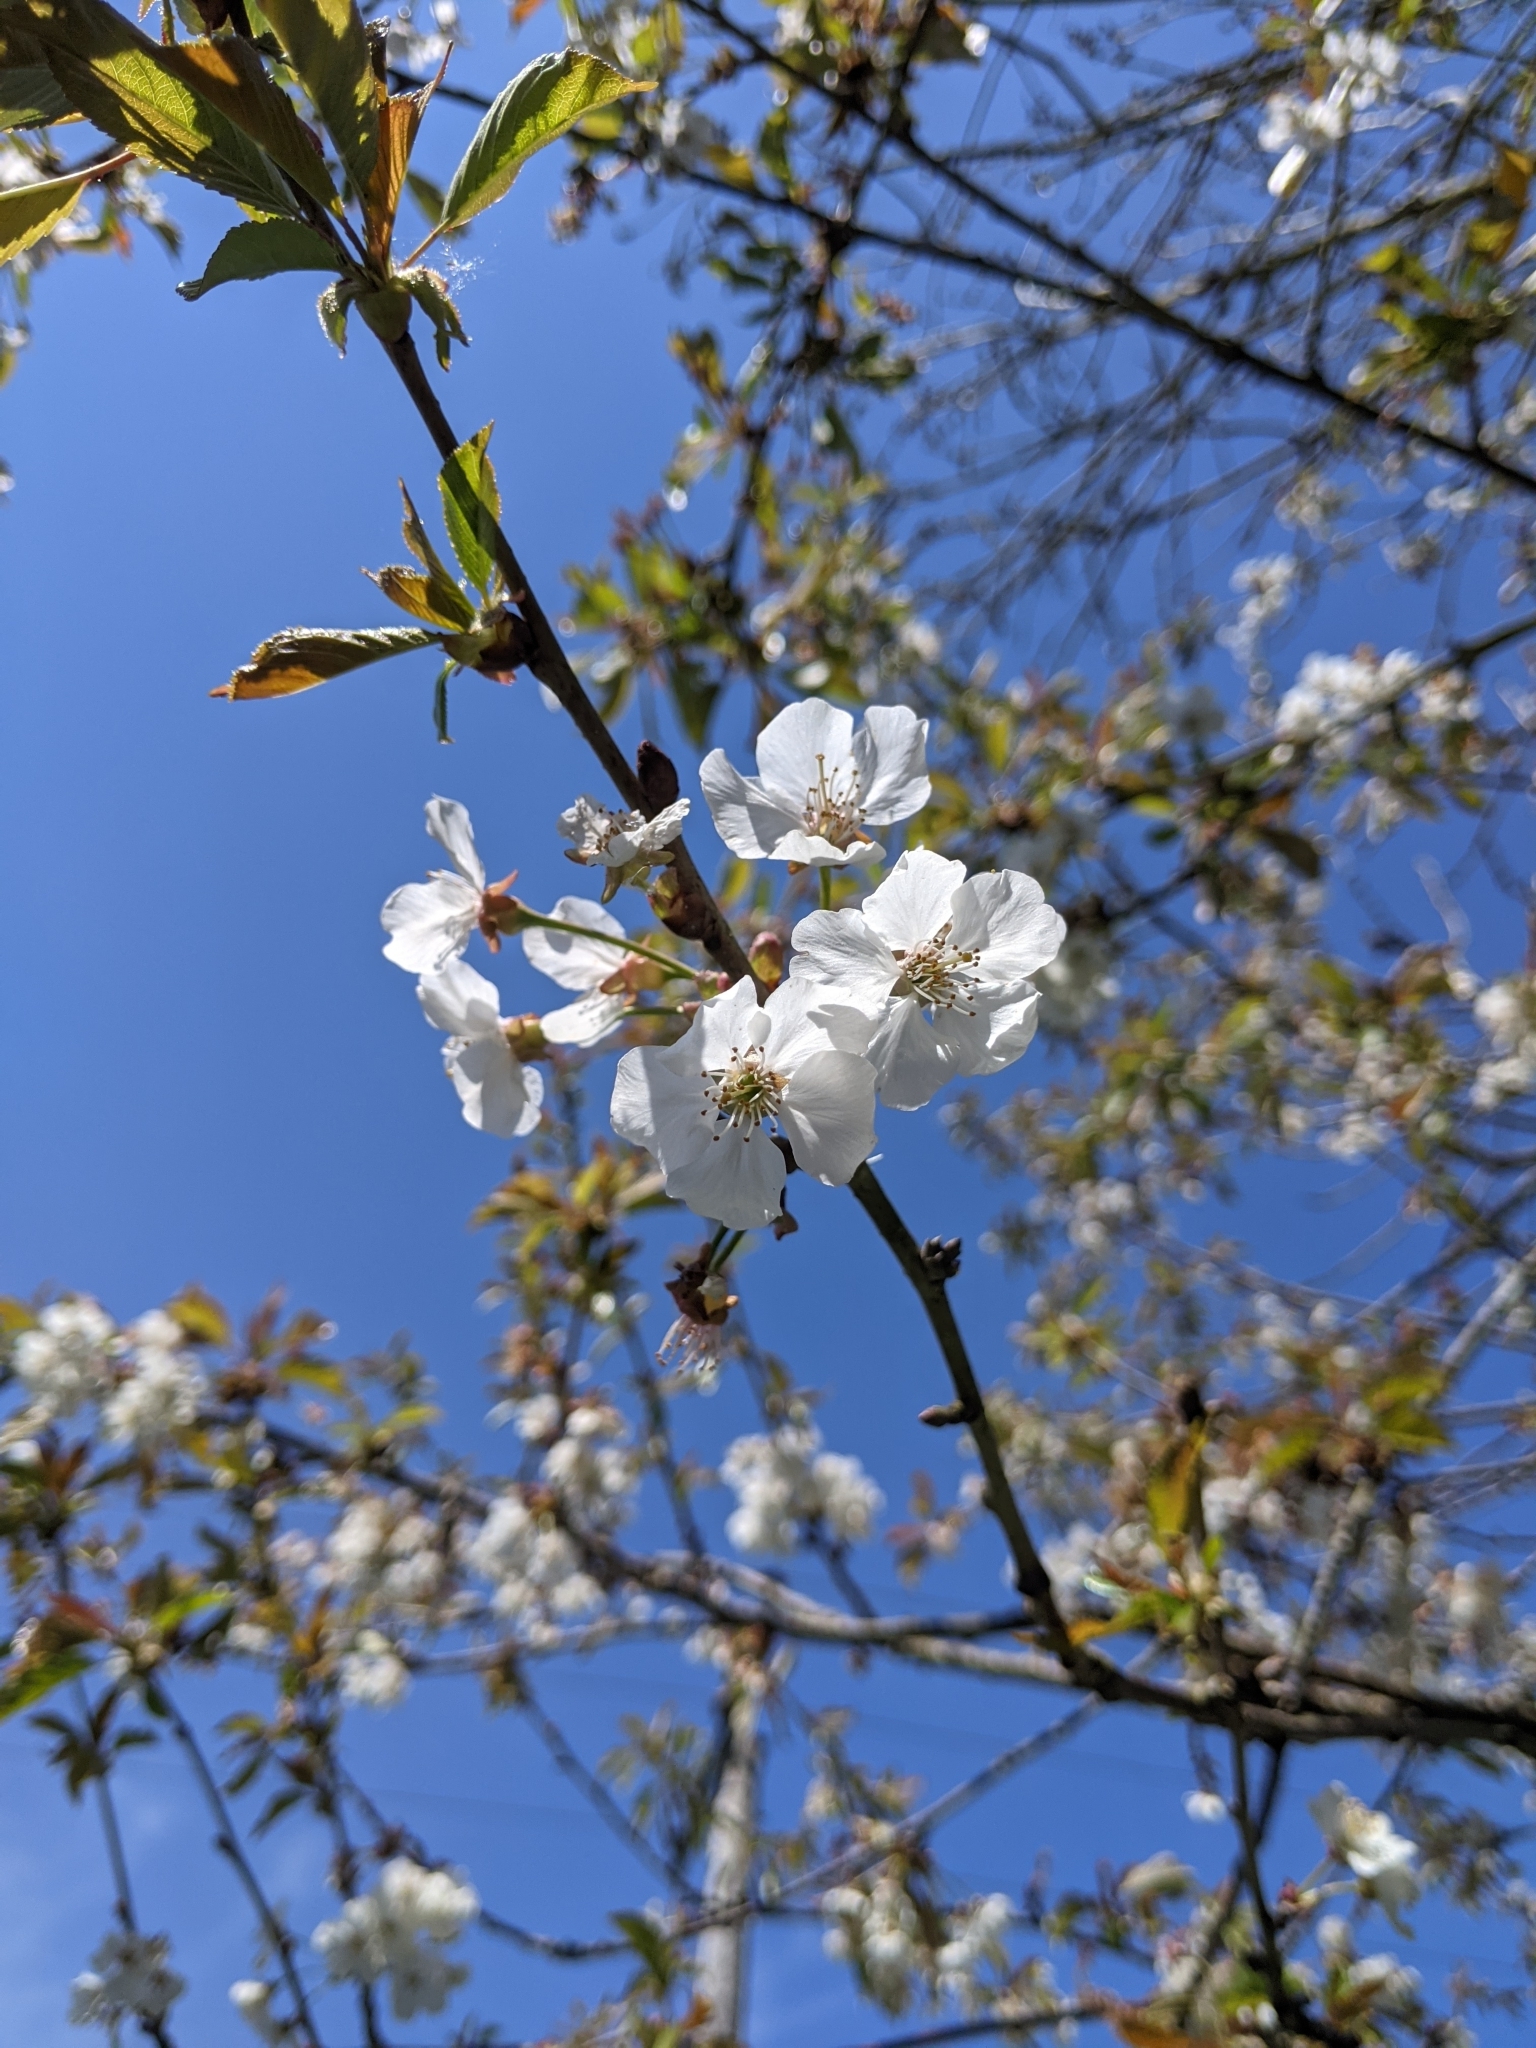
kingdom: Plantae
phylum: Tracheophyta
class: Magnoliopsida
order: Rosales
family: Rosaceae
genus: Prunus
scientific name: Prunus avium
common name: Sweet cherry
